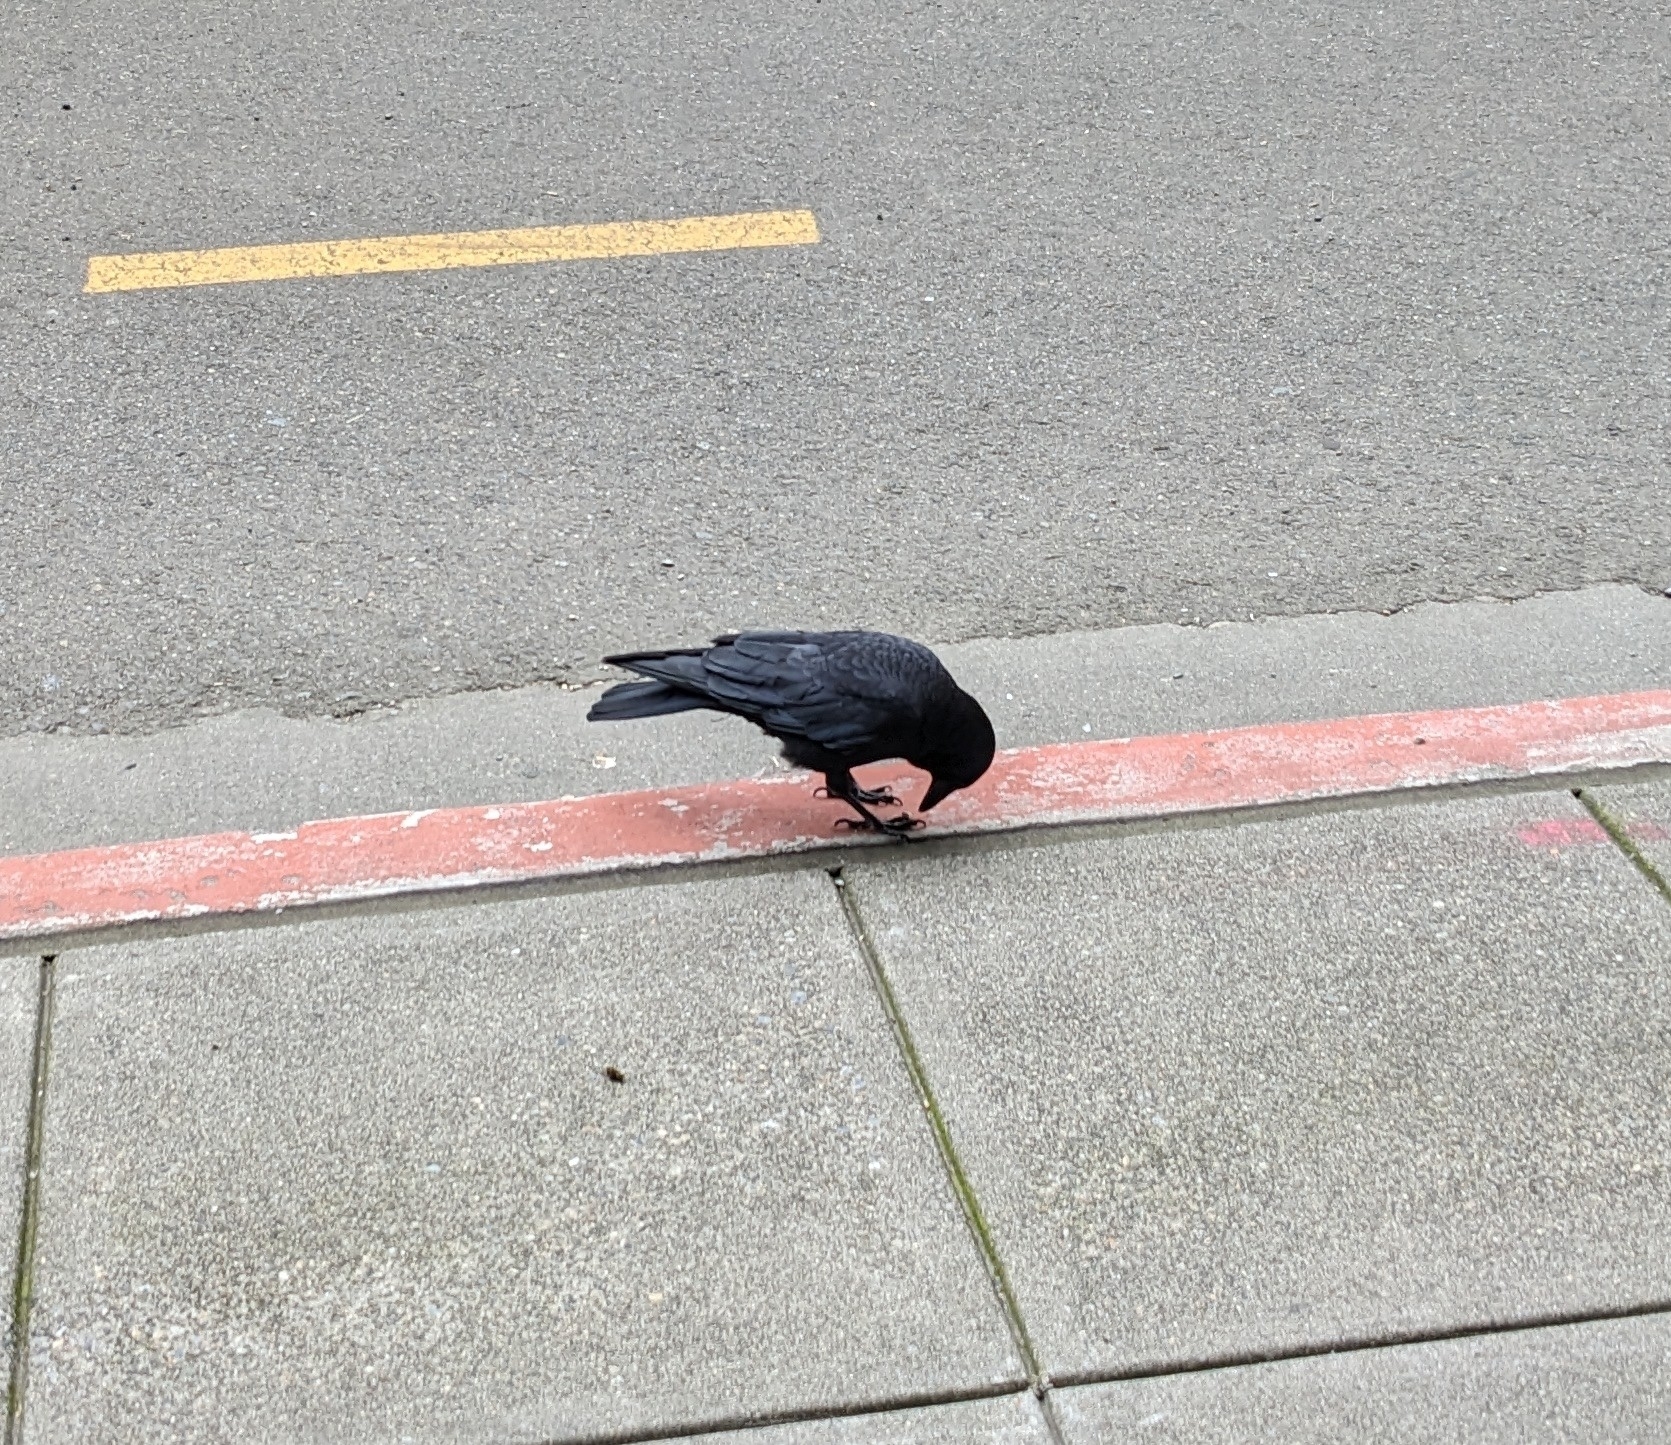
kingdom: Animalia
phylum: Chordata
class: Aves
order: Passeriformes
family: Corvidae
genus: Corvus
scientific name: Corvus brachyrhynchos
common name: American crow
